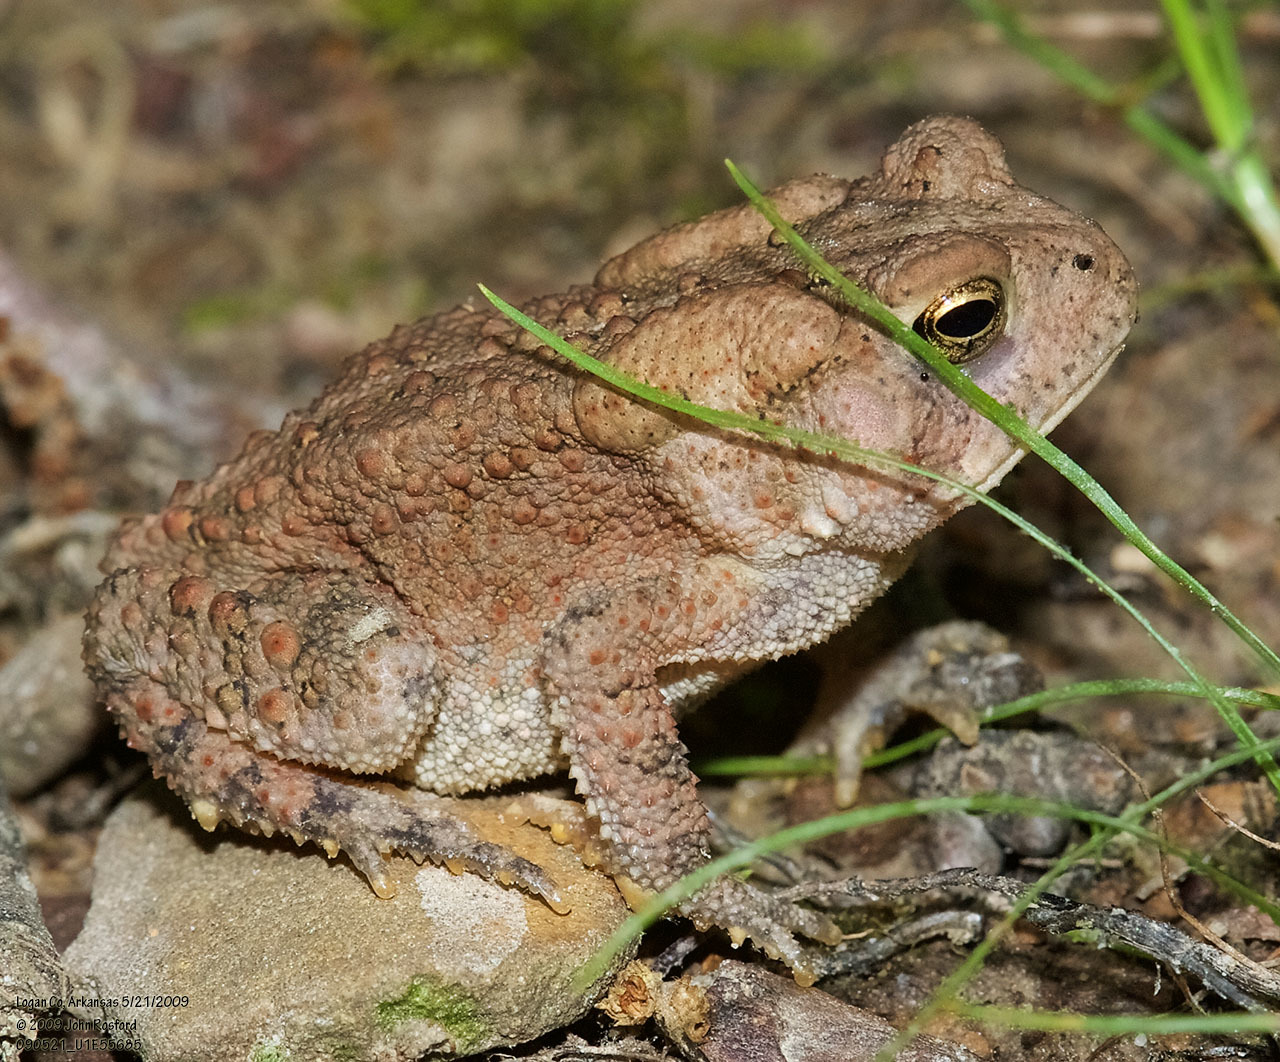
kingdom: Animalia
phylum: Chordata
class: Amphibia
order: Anura
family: Bufonidae
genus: Anaxyrus
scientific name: Anaxyrus americanus
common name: American toad
